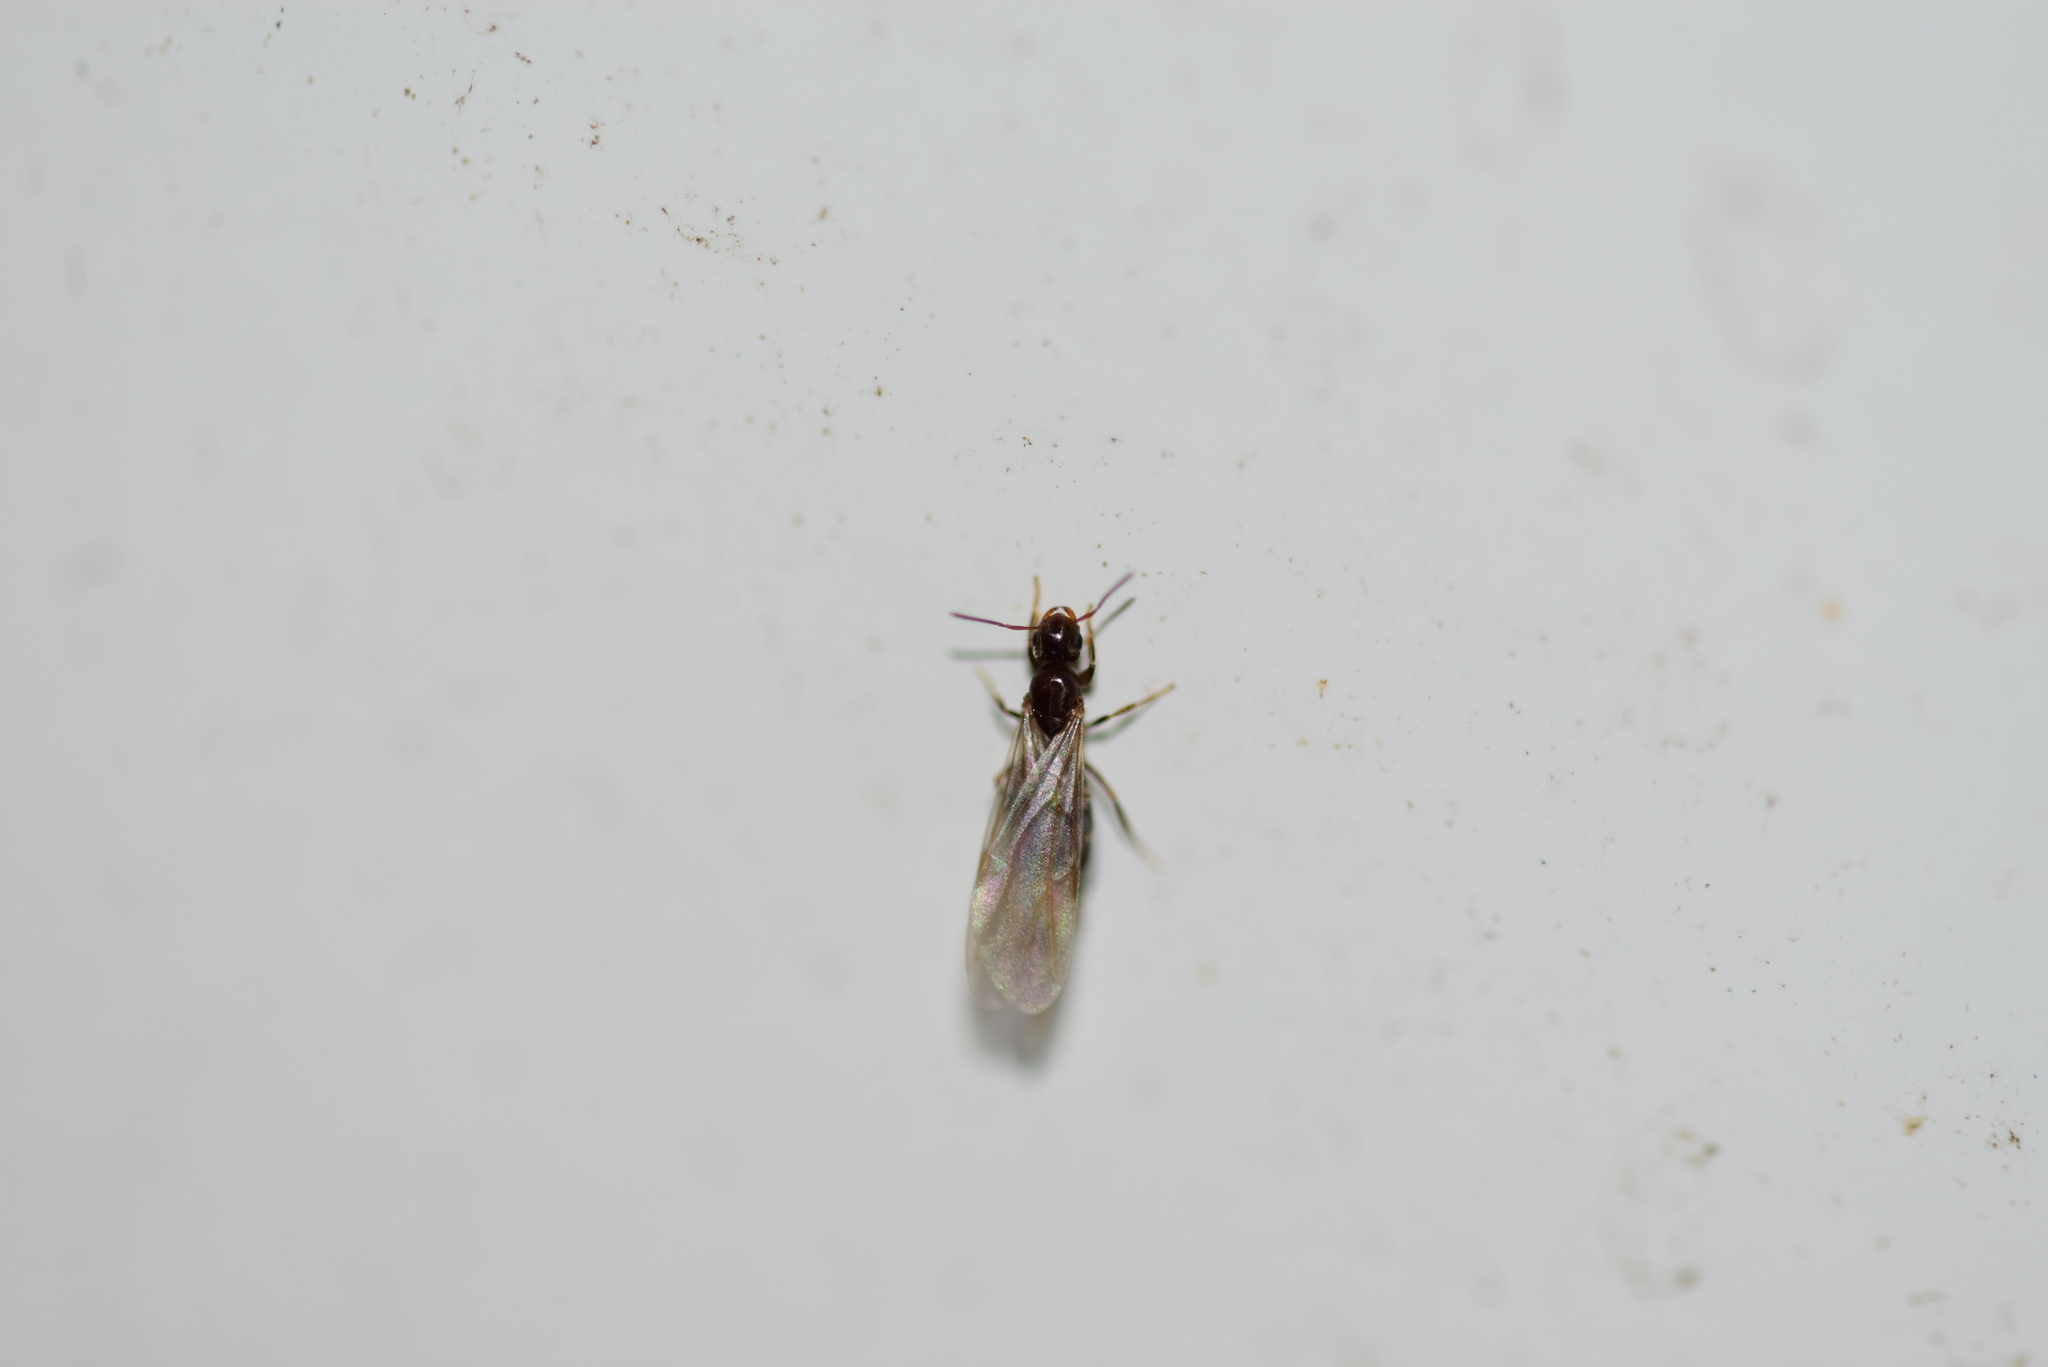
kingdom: Animalia
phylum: Arthropoda
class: Insecta
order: Hymenoptera
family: Formicidae
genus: Brachymyrmex
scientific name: Brachymyrmex patagonicus
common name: Dark rover ant
